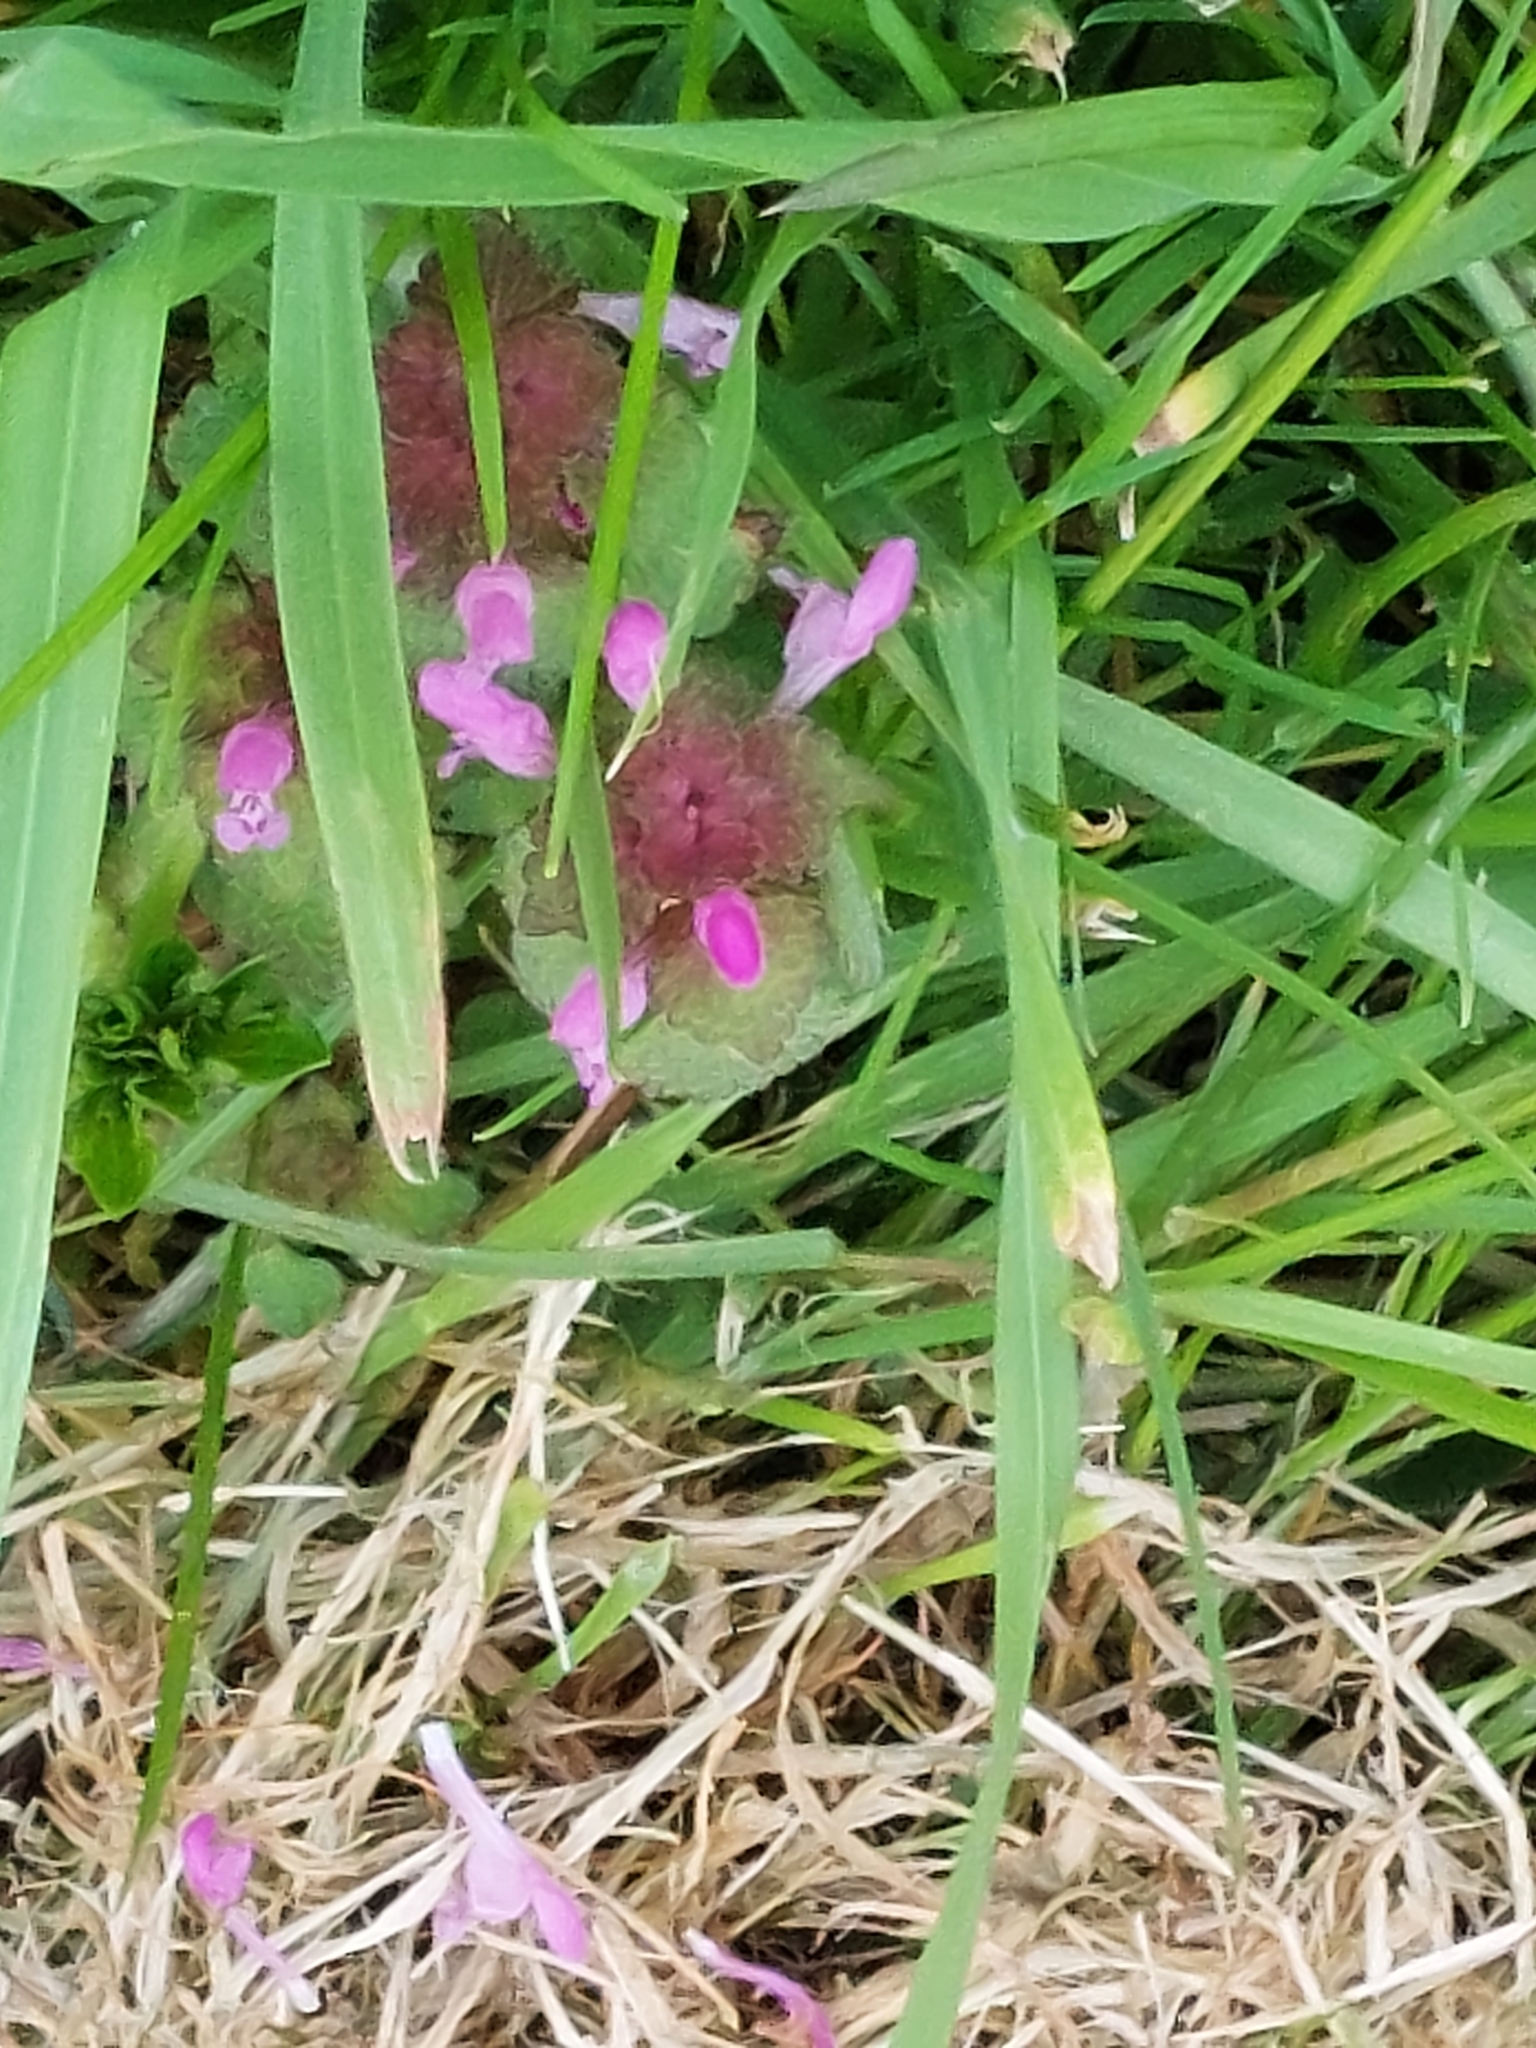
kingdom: Plantae
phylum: Tracheophyta
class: Magnoliopsida
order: Lamiales
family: Lamiaceae
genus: Lamium
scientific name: Lamium purpureum
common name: Red dead-nettle
